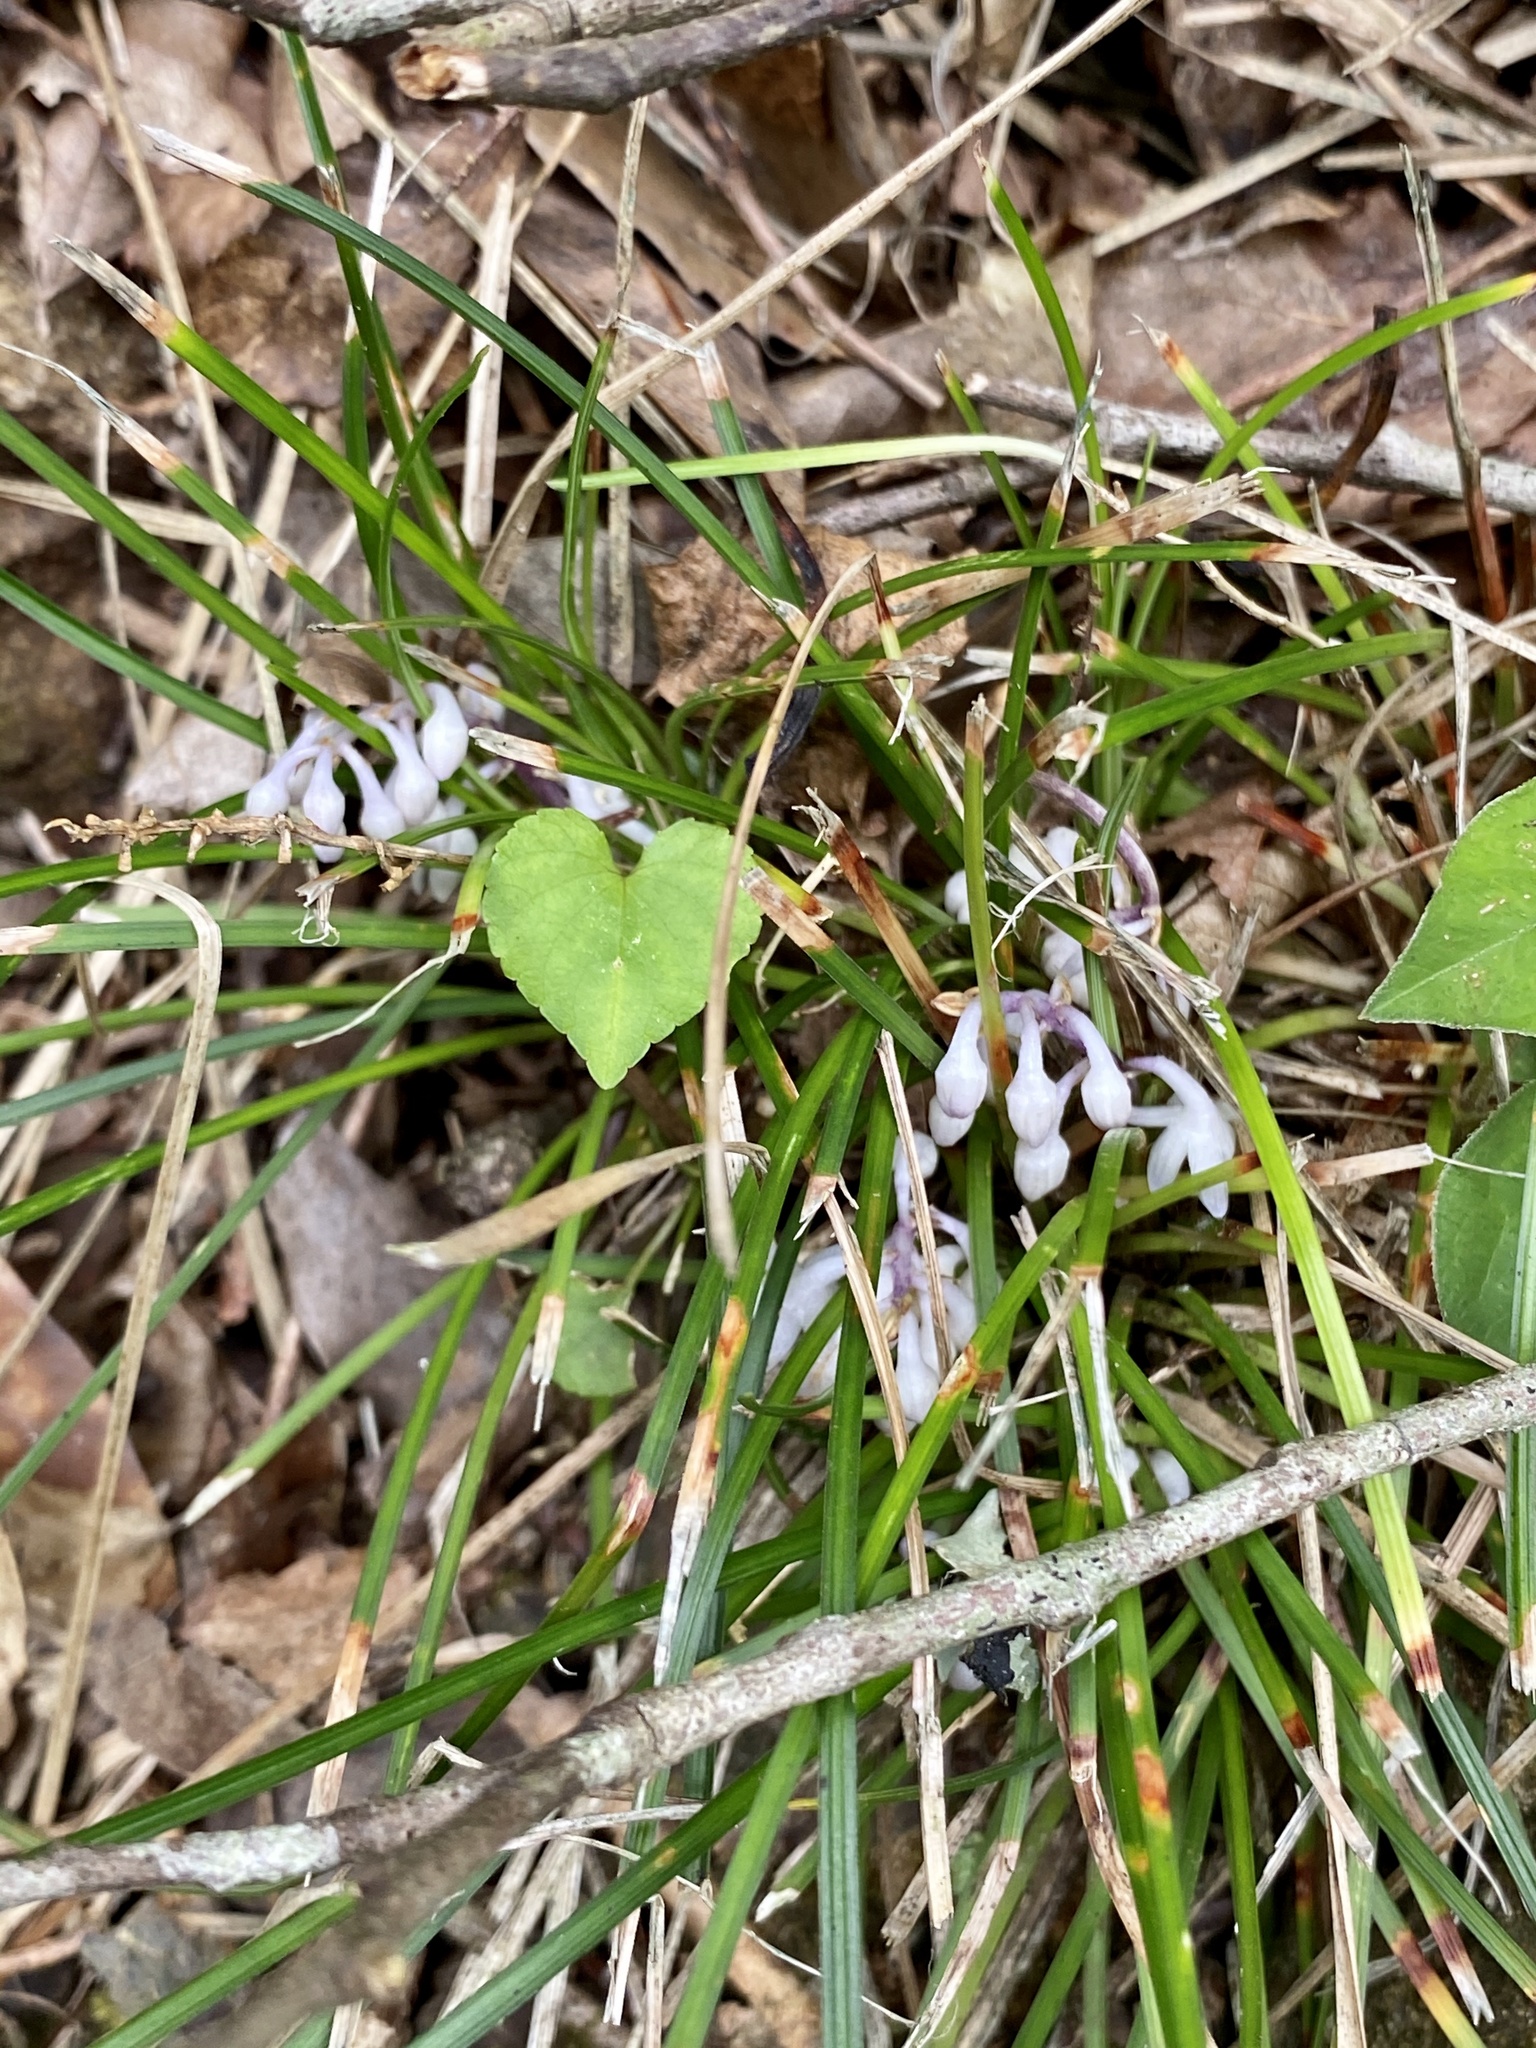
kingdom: Plantae
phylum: Tracheophyta
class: Liliopsida
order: Asparagales
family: Asparagaceae
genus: Ophiopogon
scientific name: Ophiopogon japonicus
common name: Dwarf lilyturf
